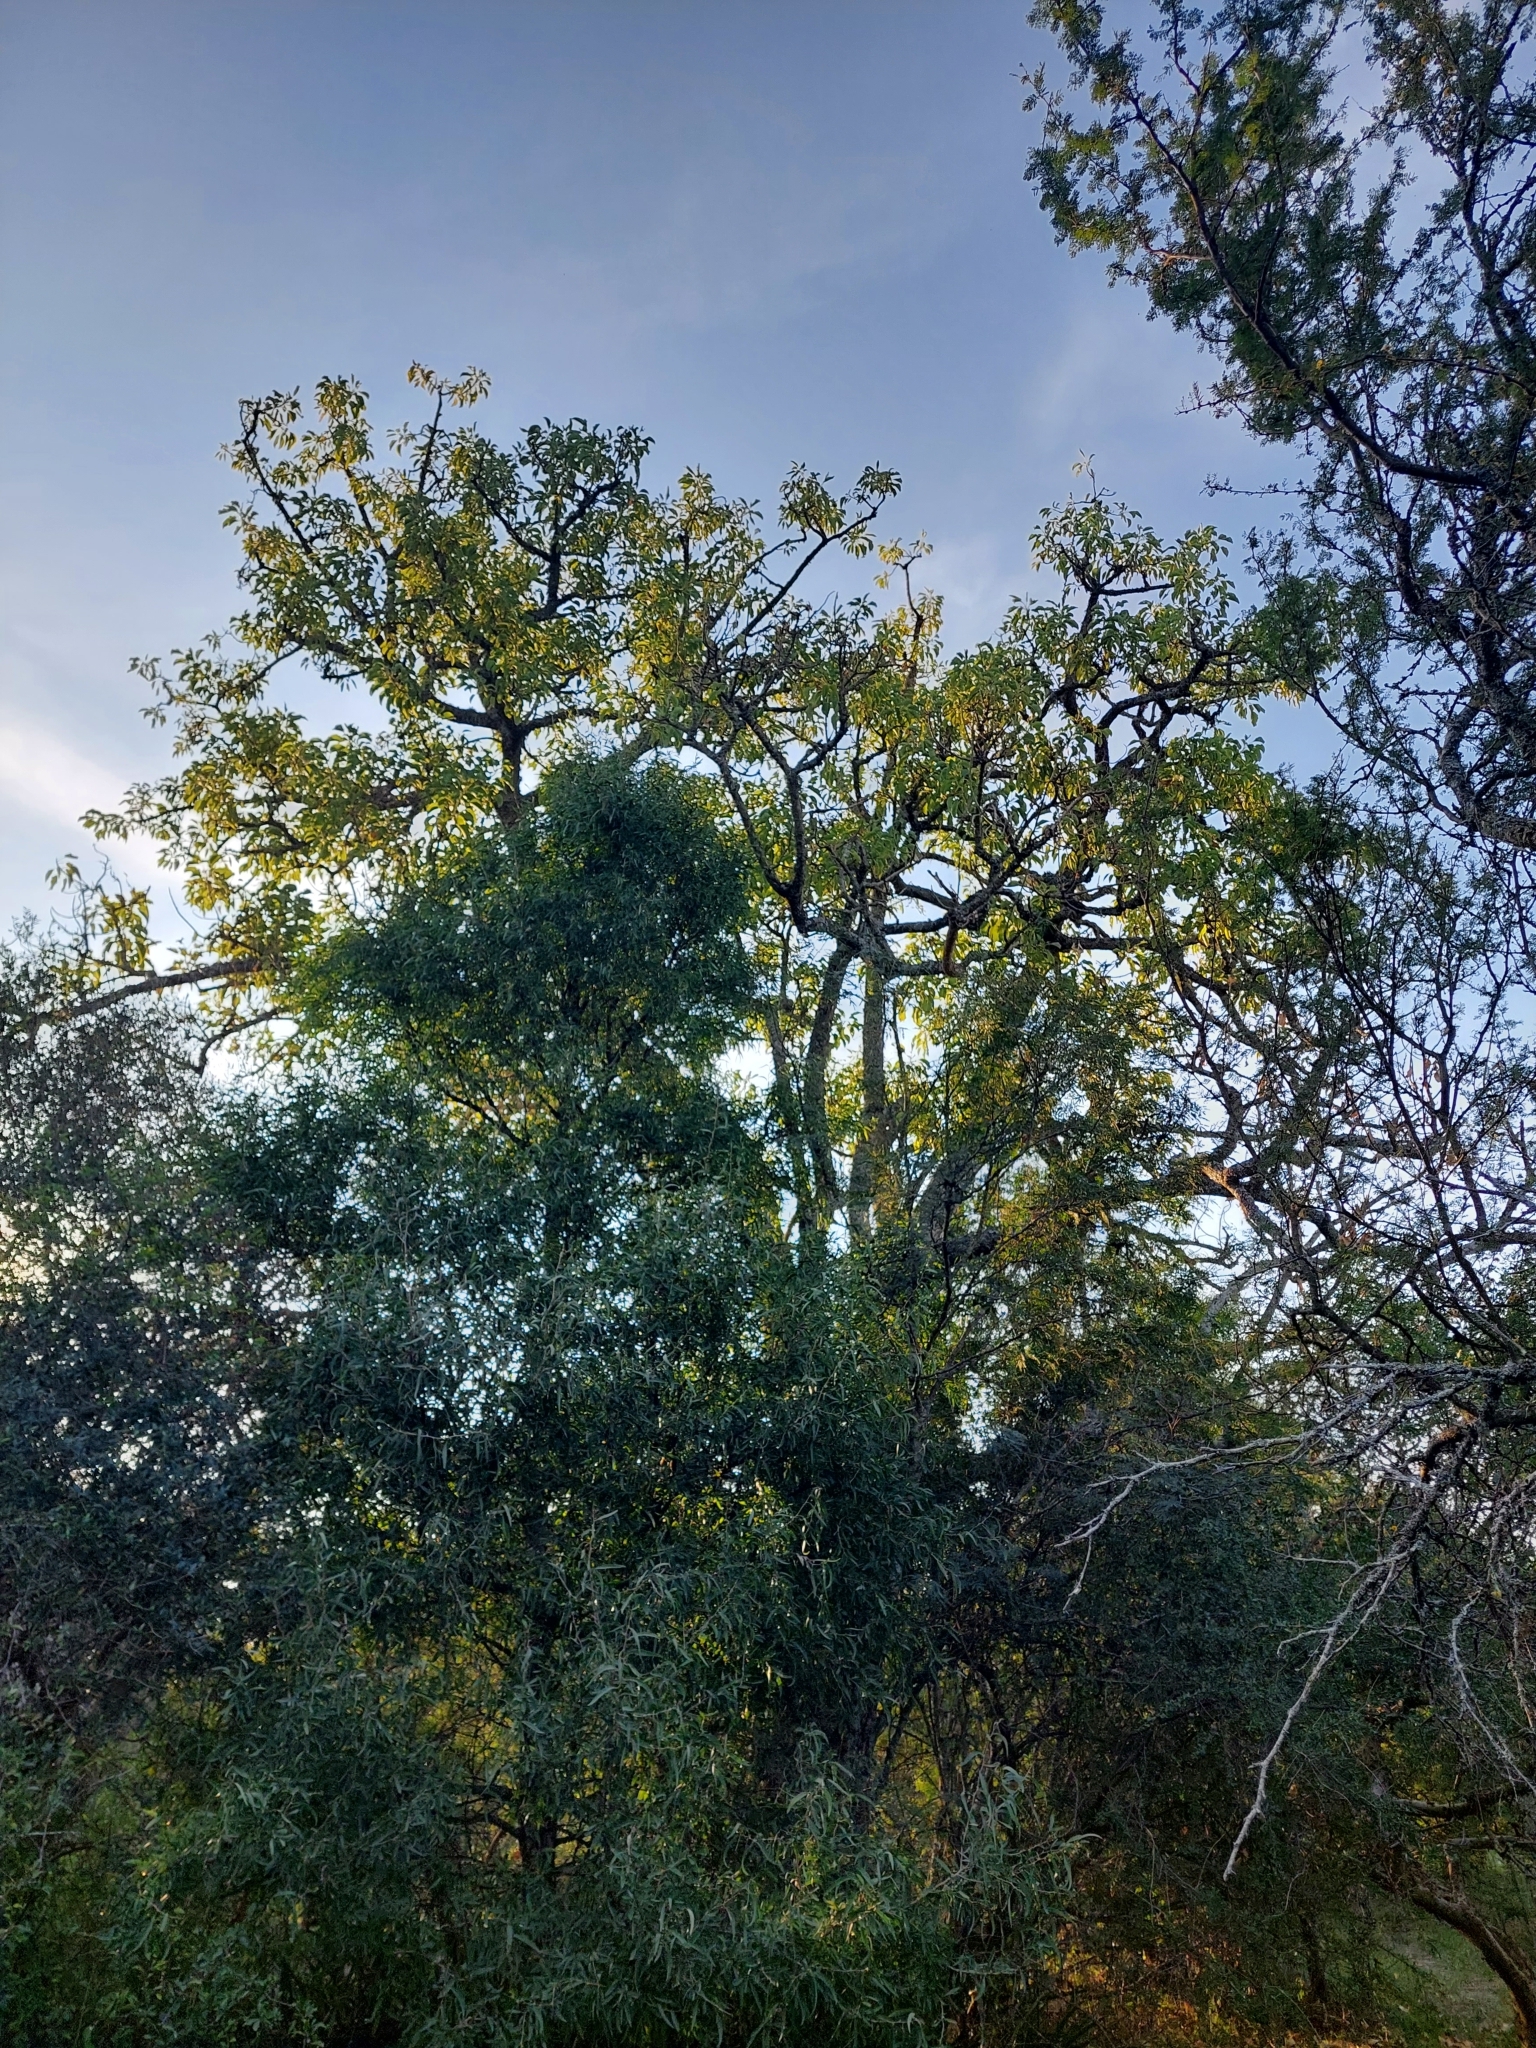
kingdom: Plantae
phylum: Tracheophyta
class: Magnoliopsida
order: Caryophyllales
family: Phytolaccaceae
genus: Phytolacca
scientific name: Phytolacca dioica
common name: Pokeweed
